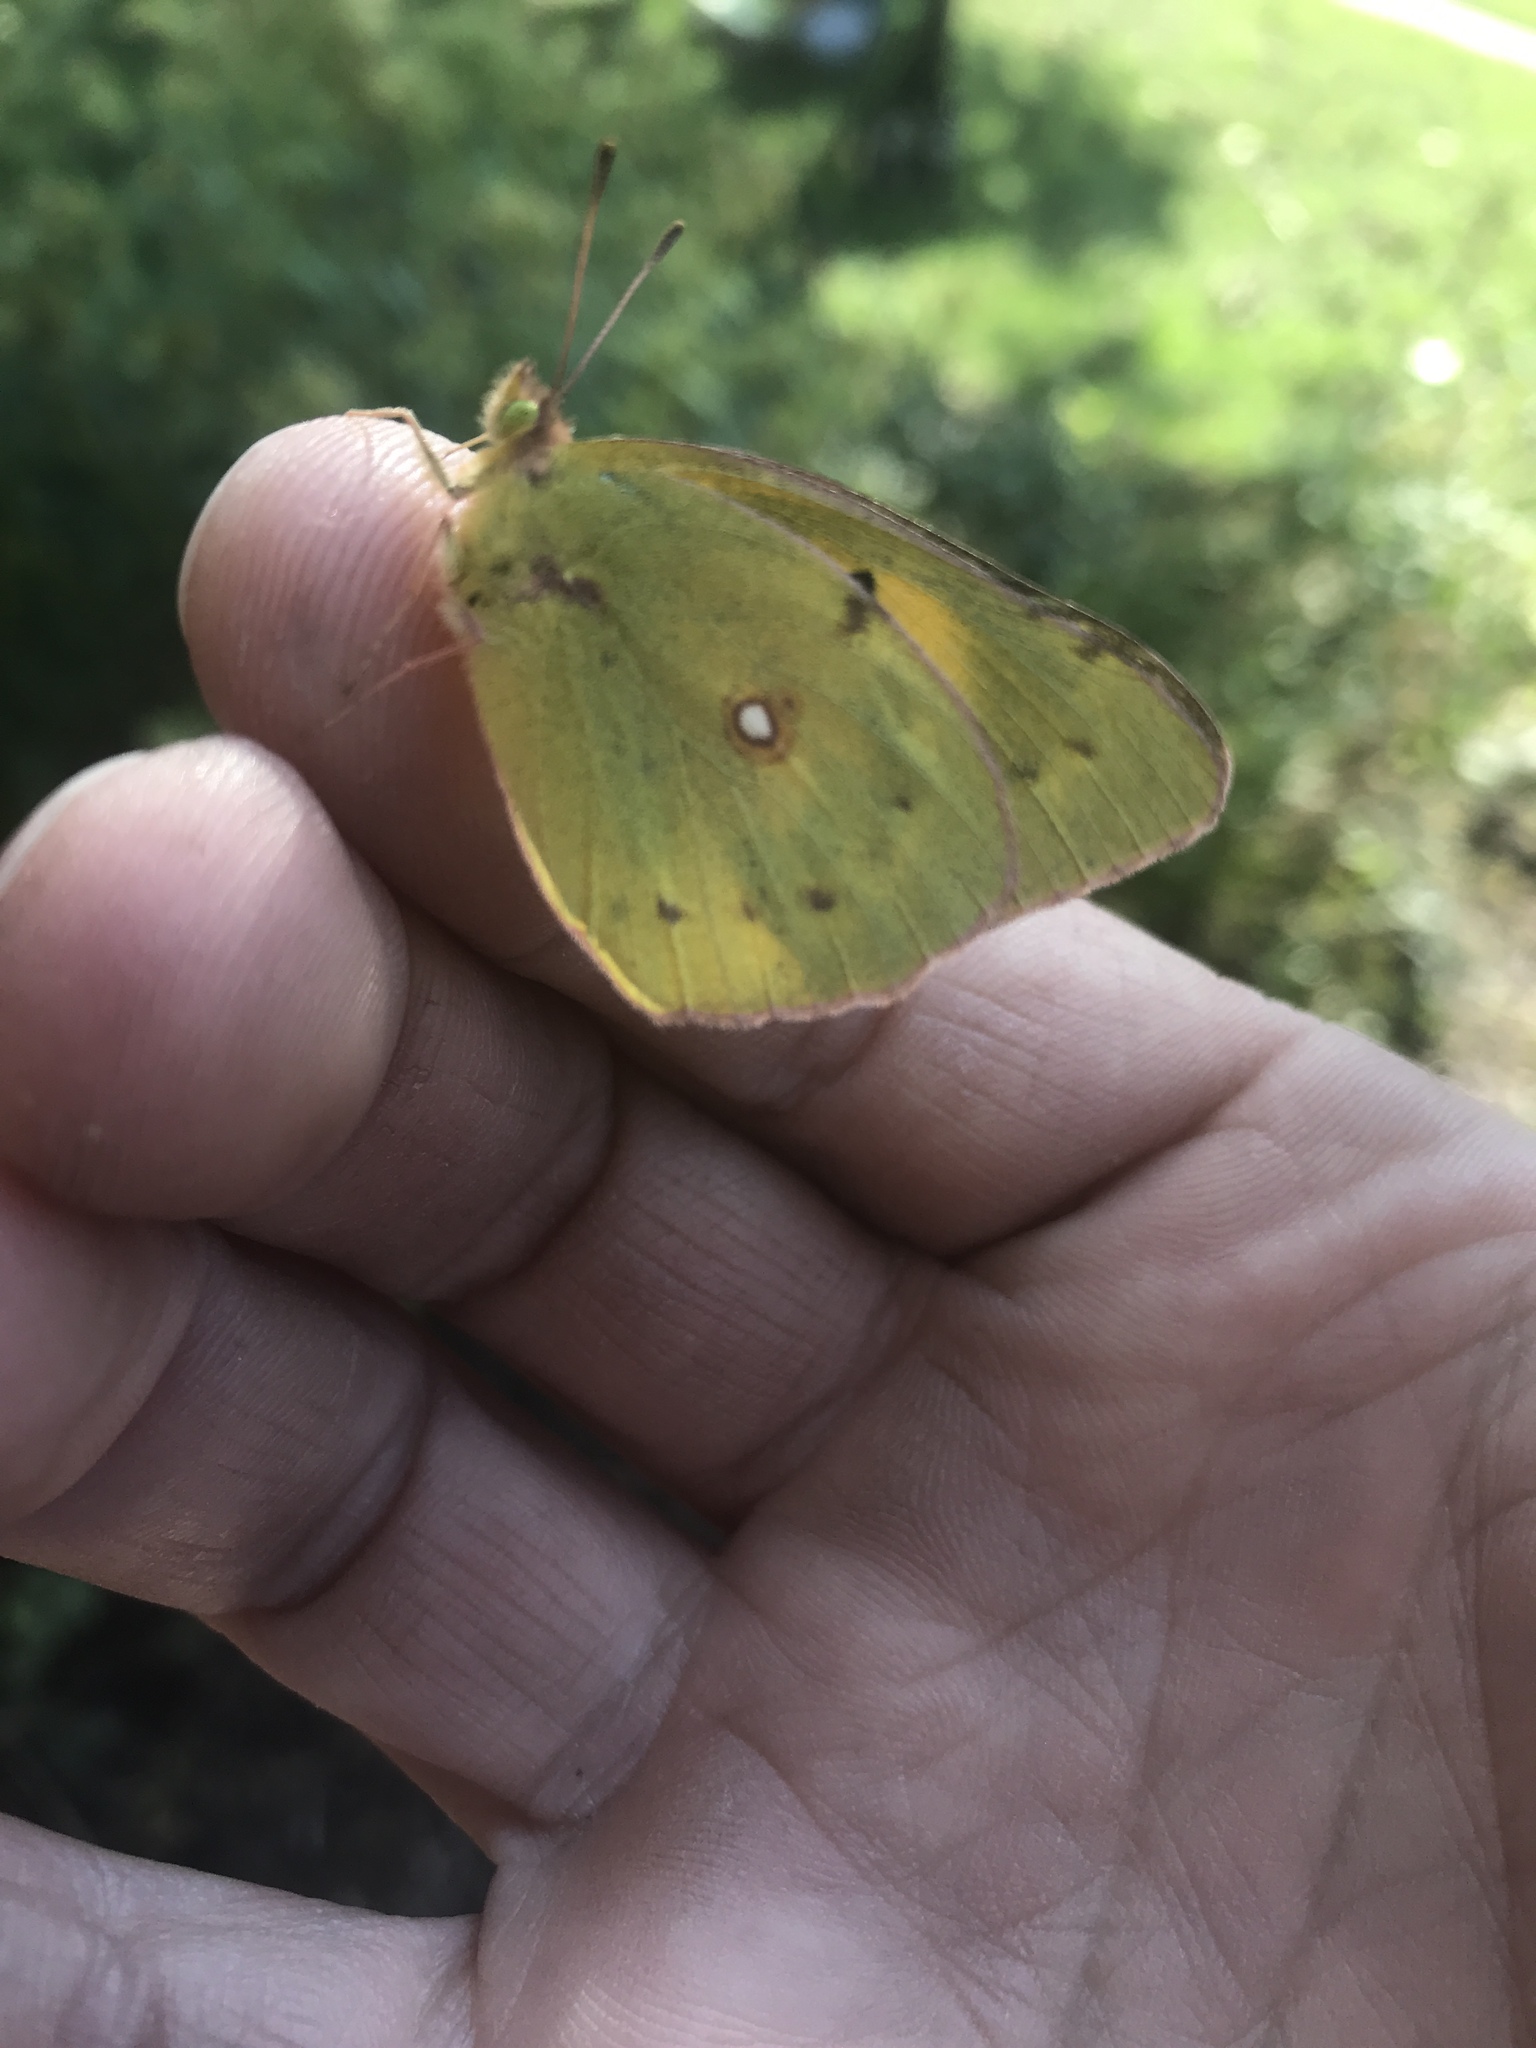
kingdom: Animalia
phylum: Arthropoda
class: Insecta
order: Lepidoptera
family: Pieridae
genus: Colias
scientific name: Colias eurytheme
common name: Alfalfa butterfly
